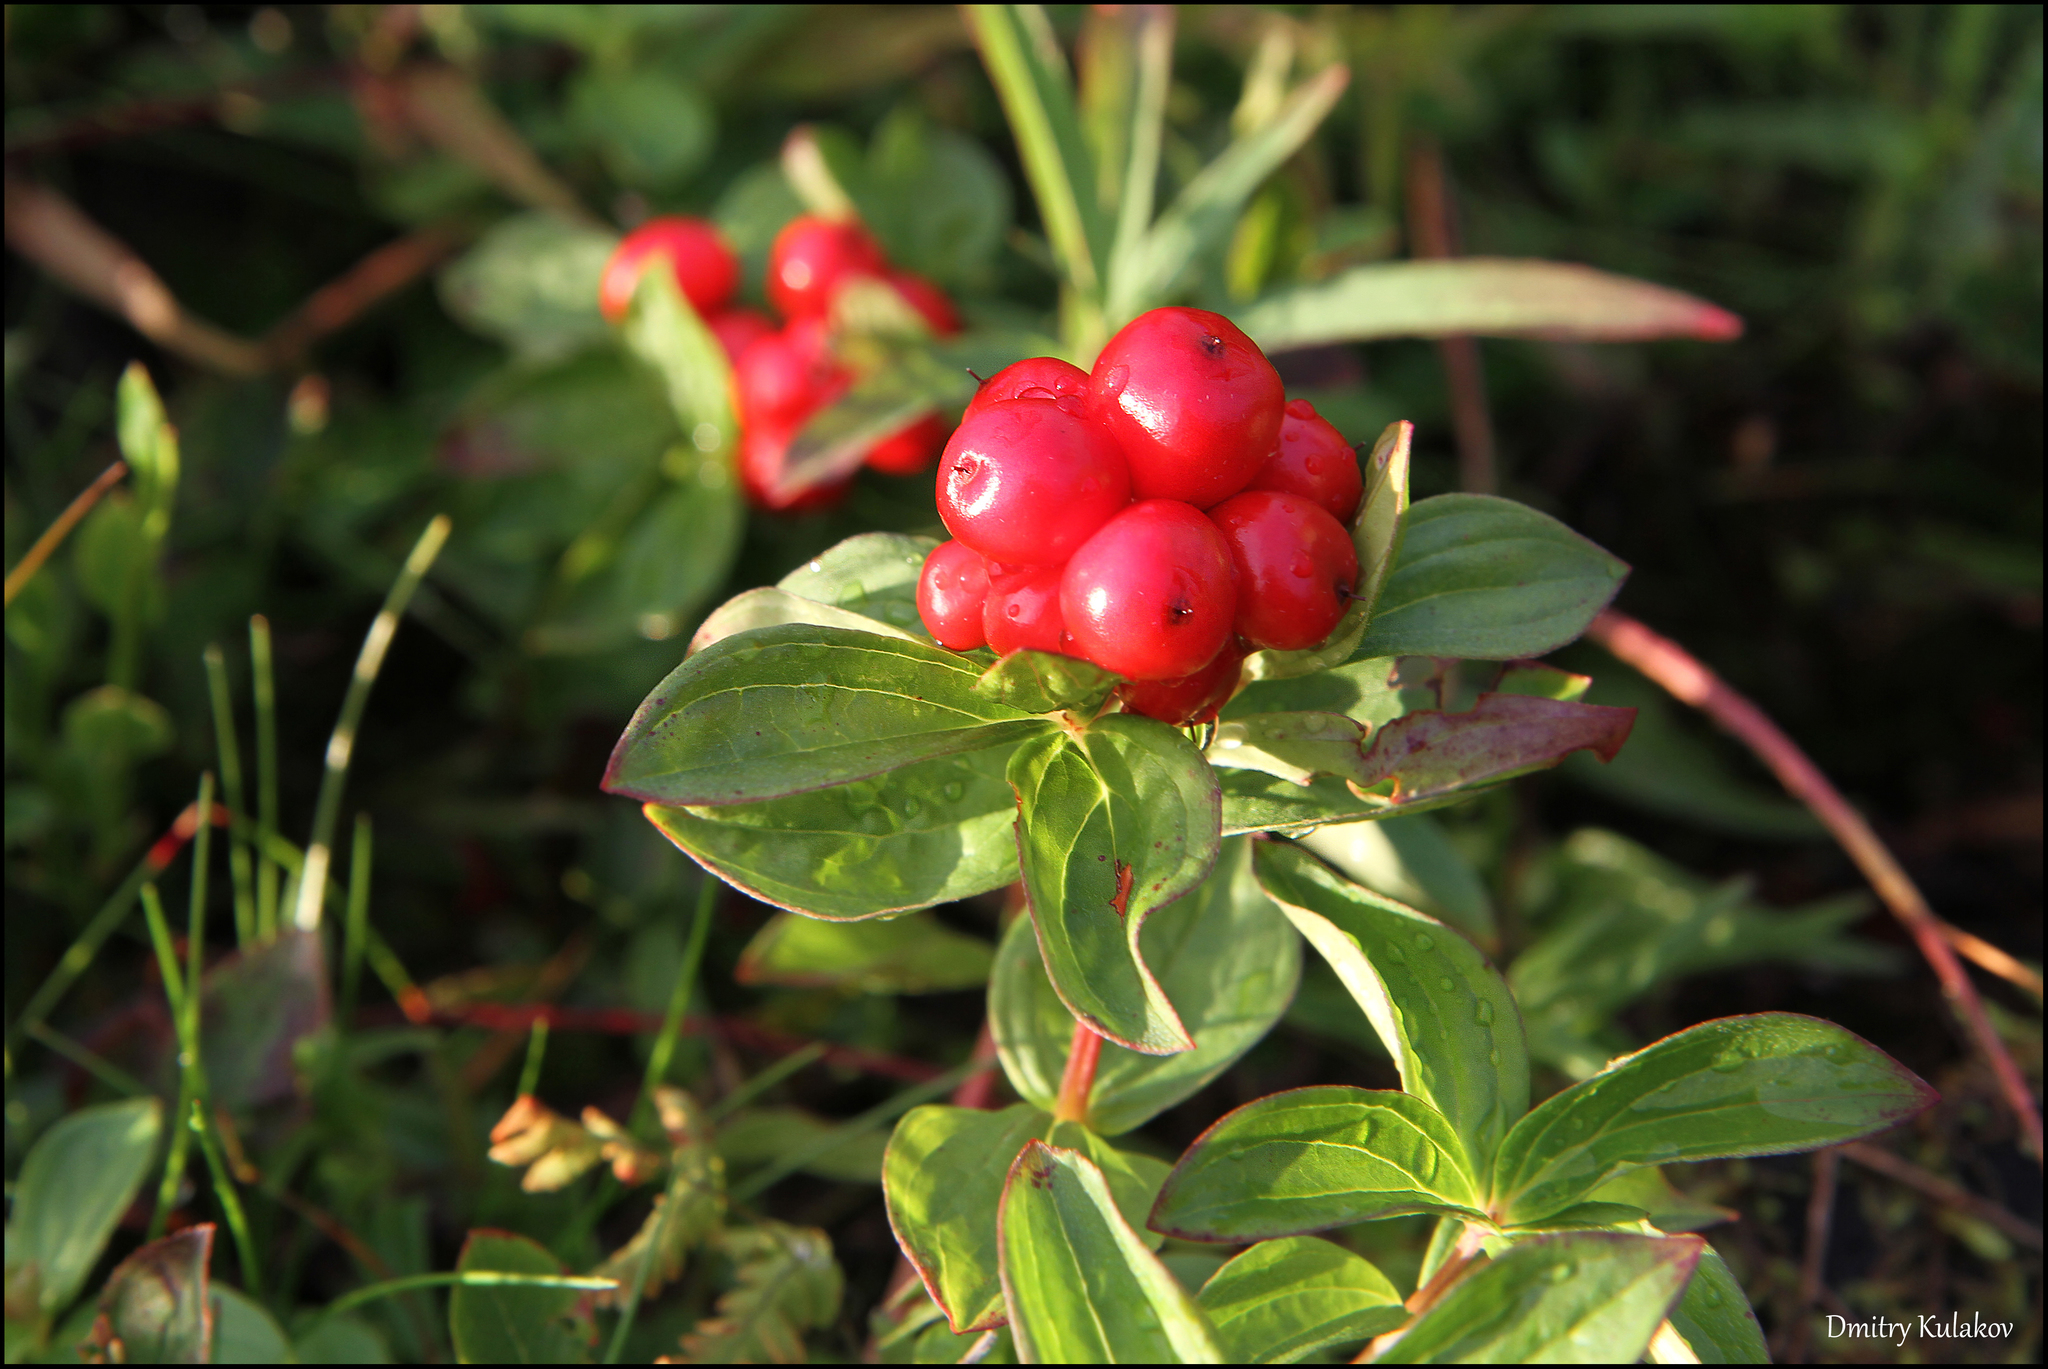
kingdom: Plantae
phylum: Tracheophyta
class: Magnoliopsida
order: Cornales
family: Cornaceae
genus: Cornus
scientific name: Cornus suecica
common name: Dwarf cornel
